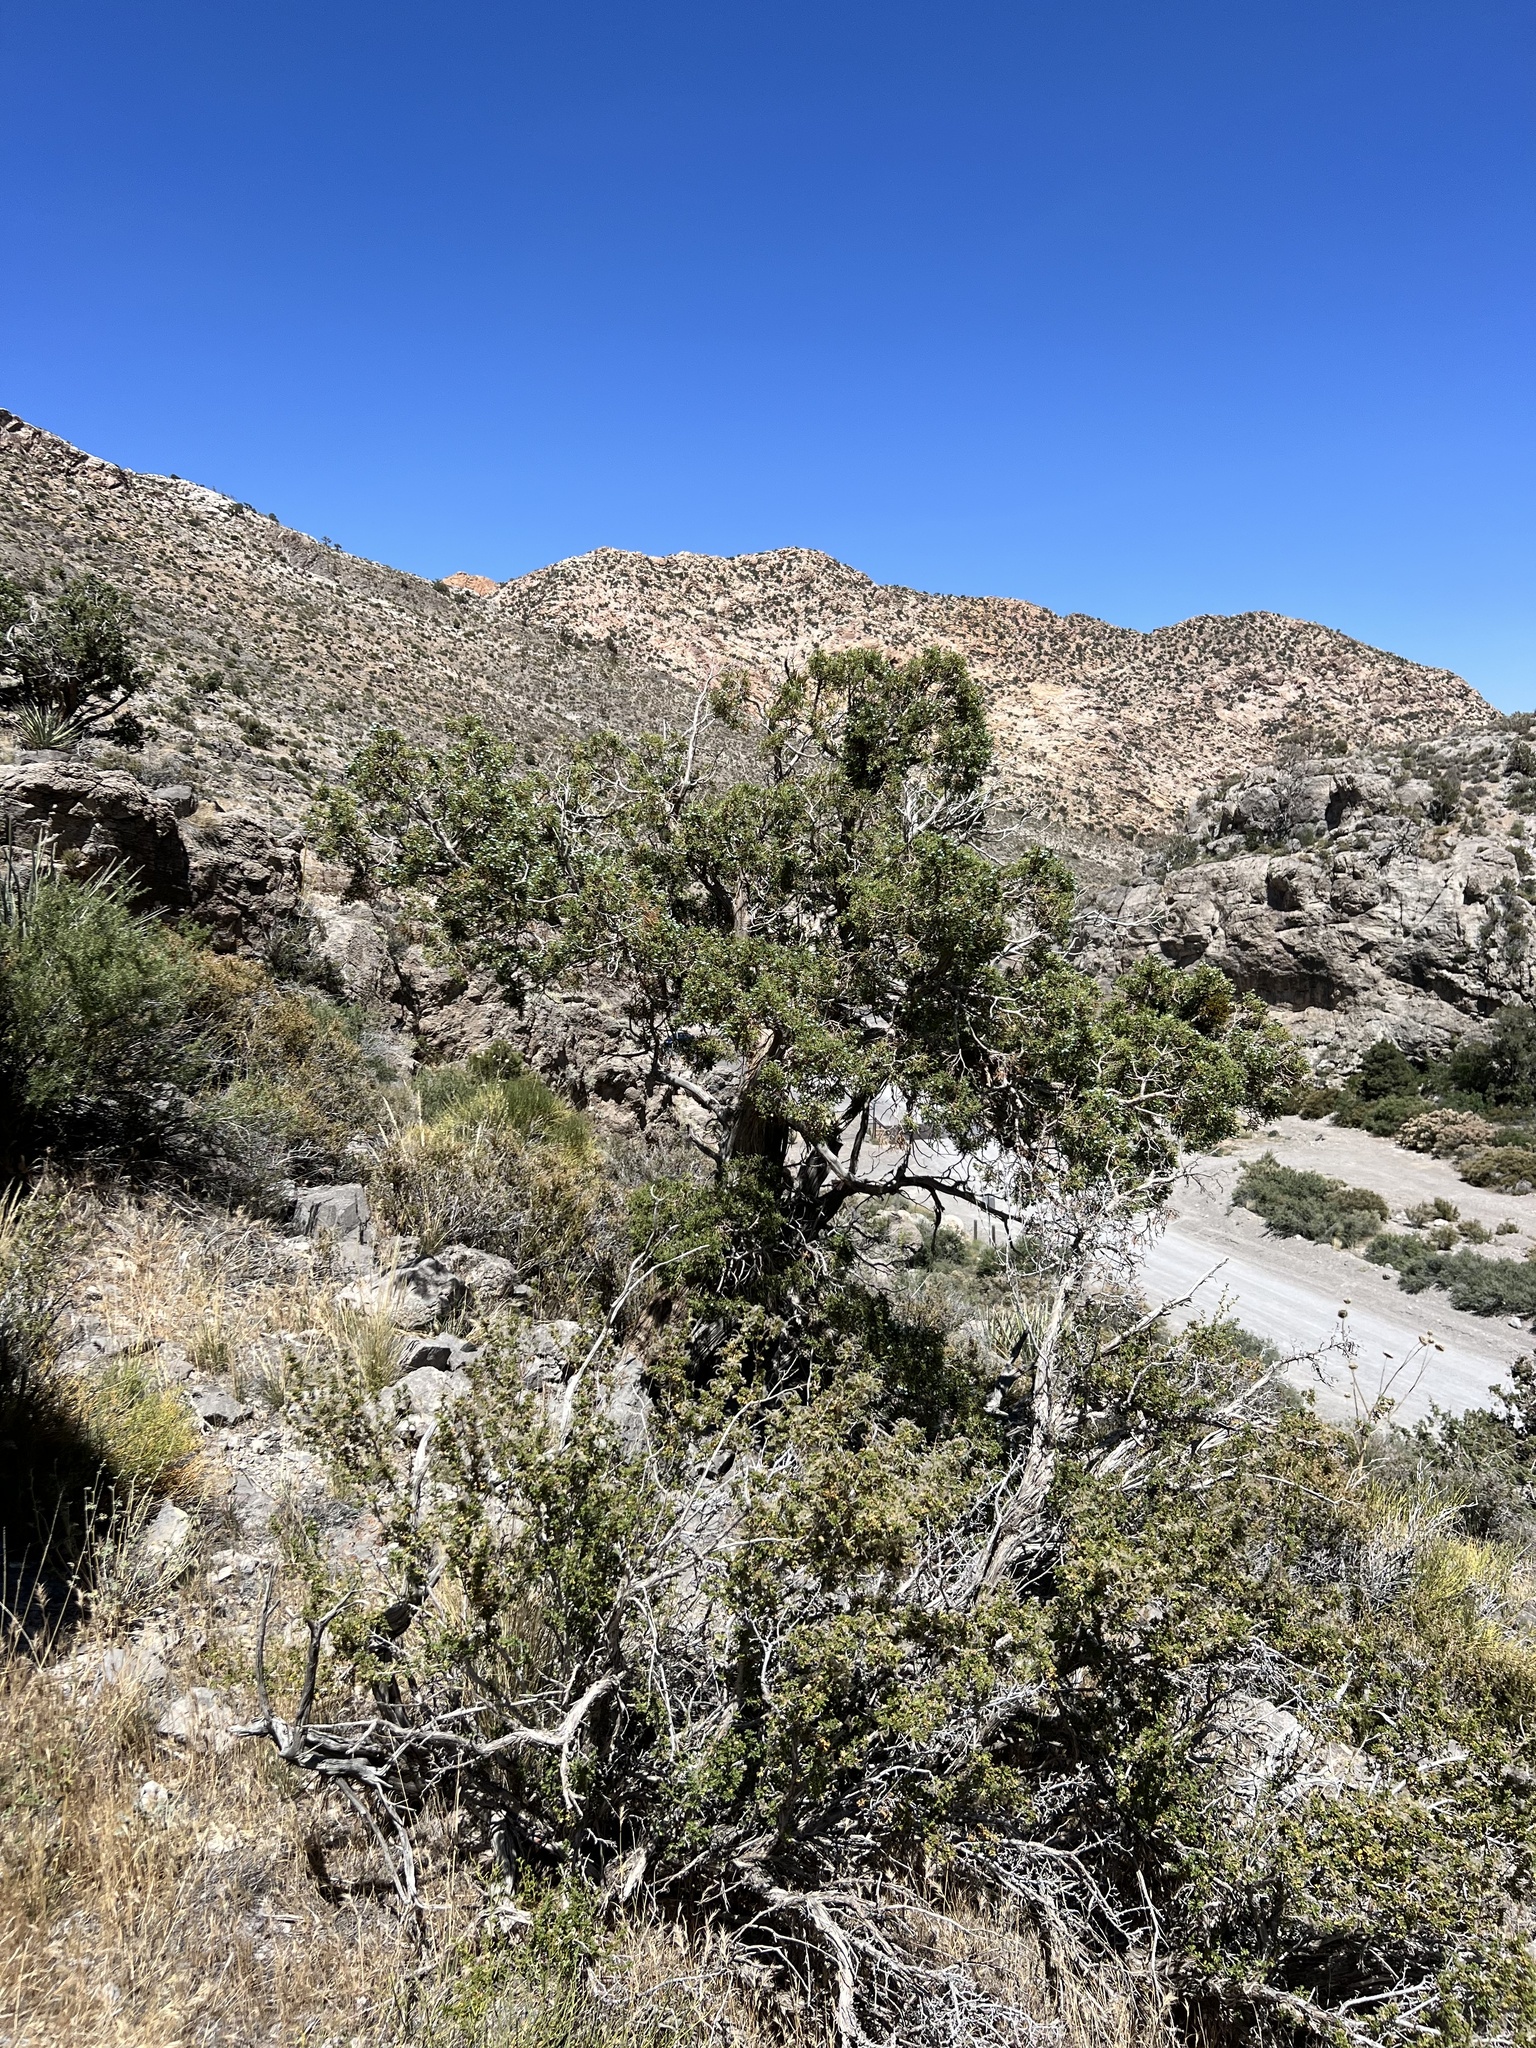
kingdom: Plantae
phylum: Tracheophyta
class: Pinopsida
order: Pinales
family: Cupressaceae
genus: Juniperus
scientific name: Juniperus osteosperma
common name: Utah juniper
